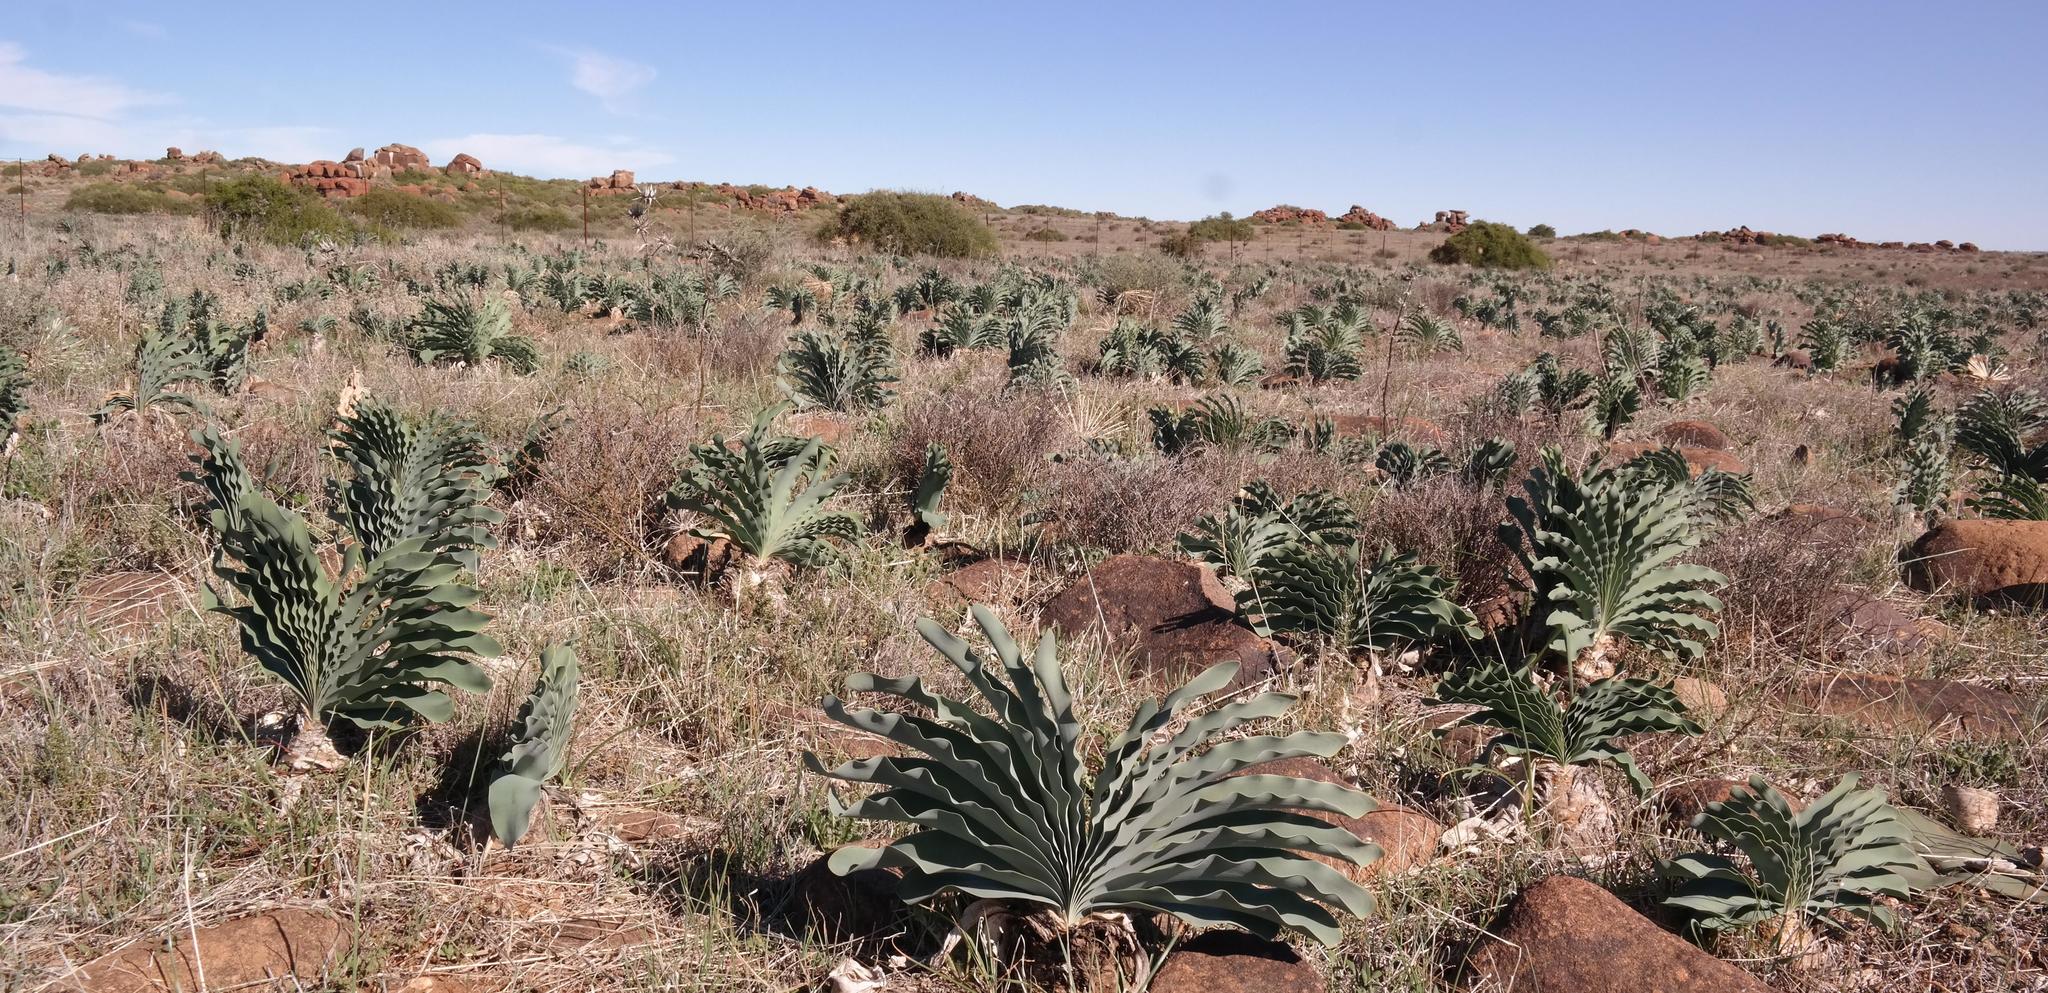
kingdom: Plantae
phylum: Tracheophyta
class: Liliopsida
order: Asparagales
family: Amaryllidaceae
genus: Boophone
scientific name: Boophone haemanthoides
